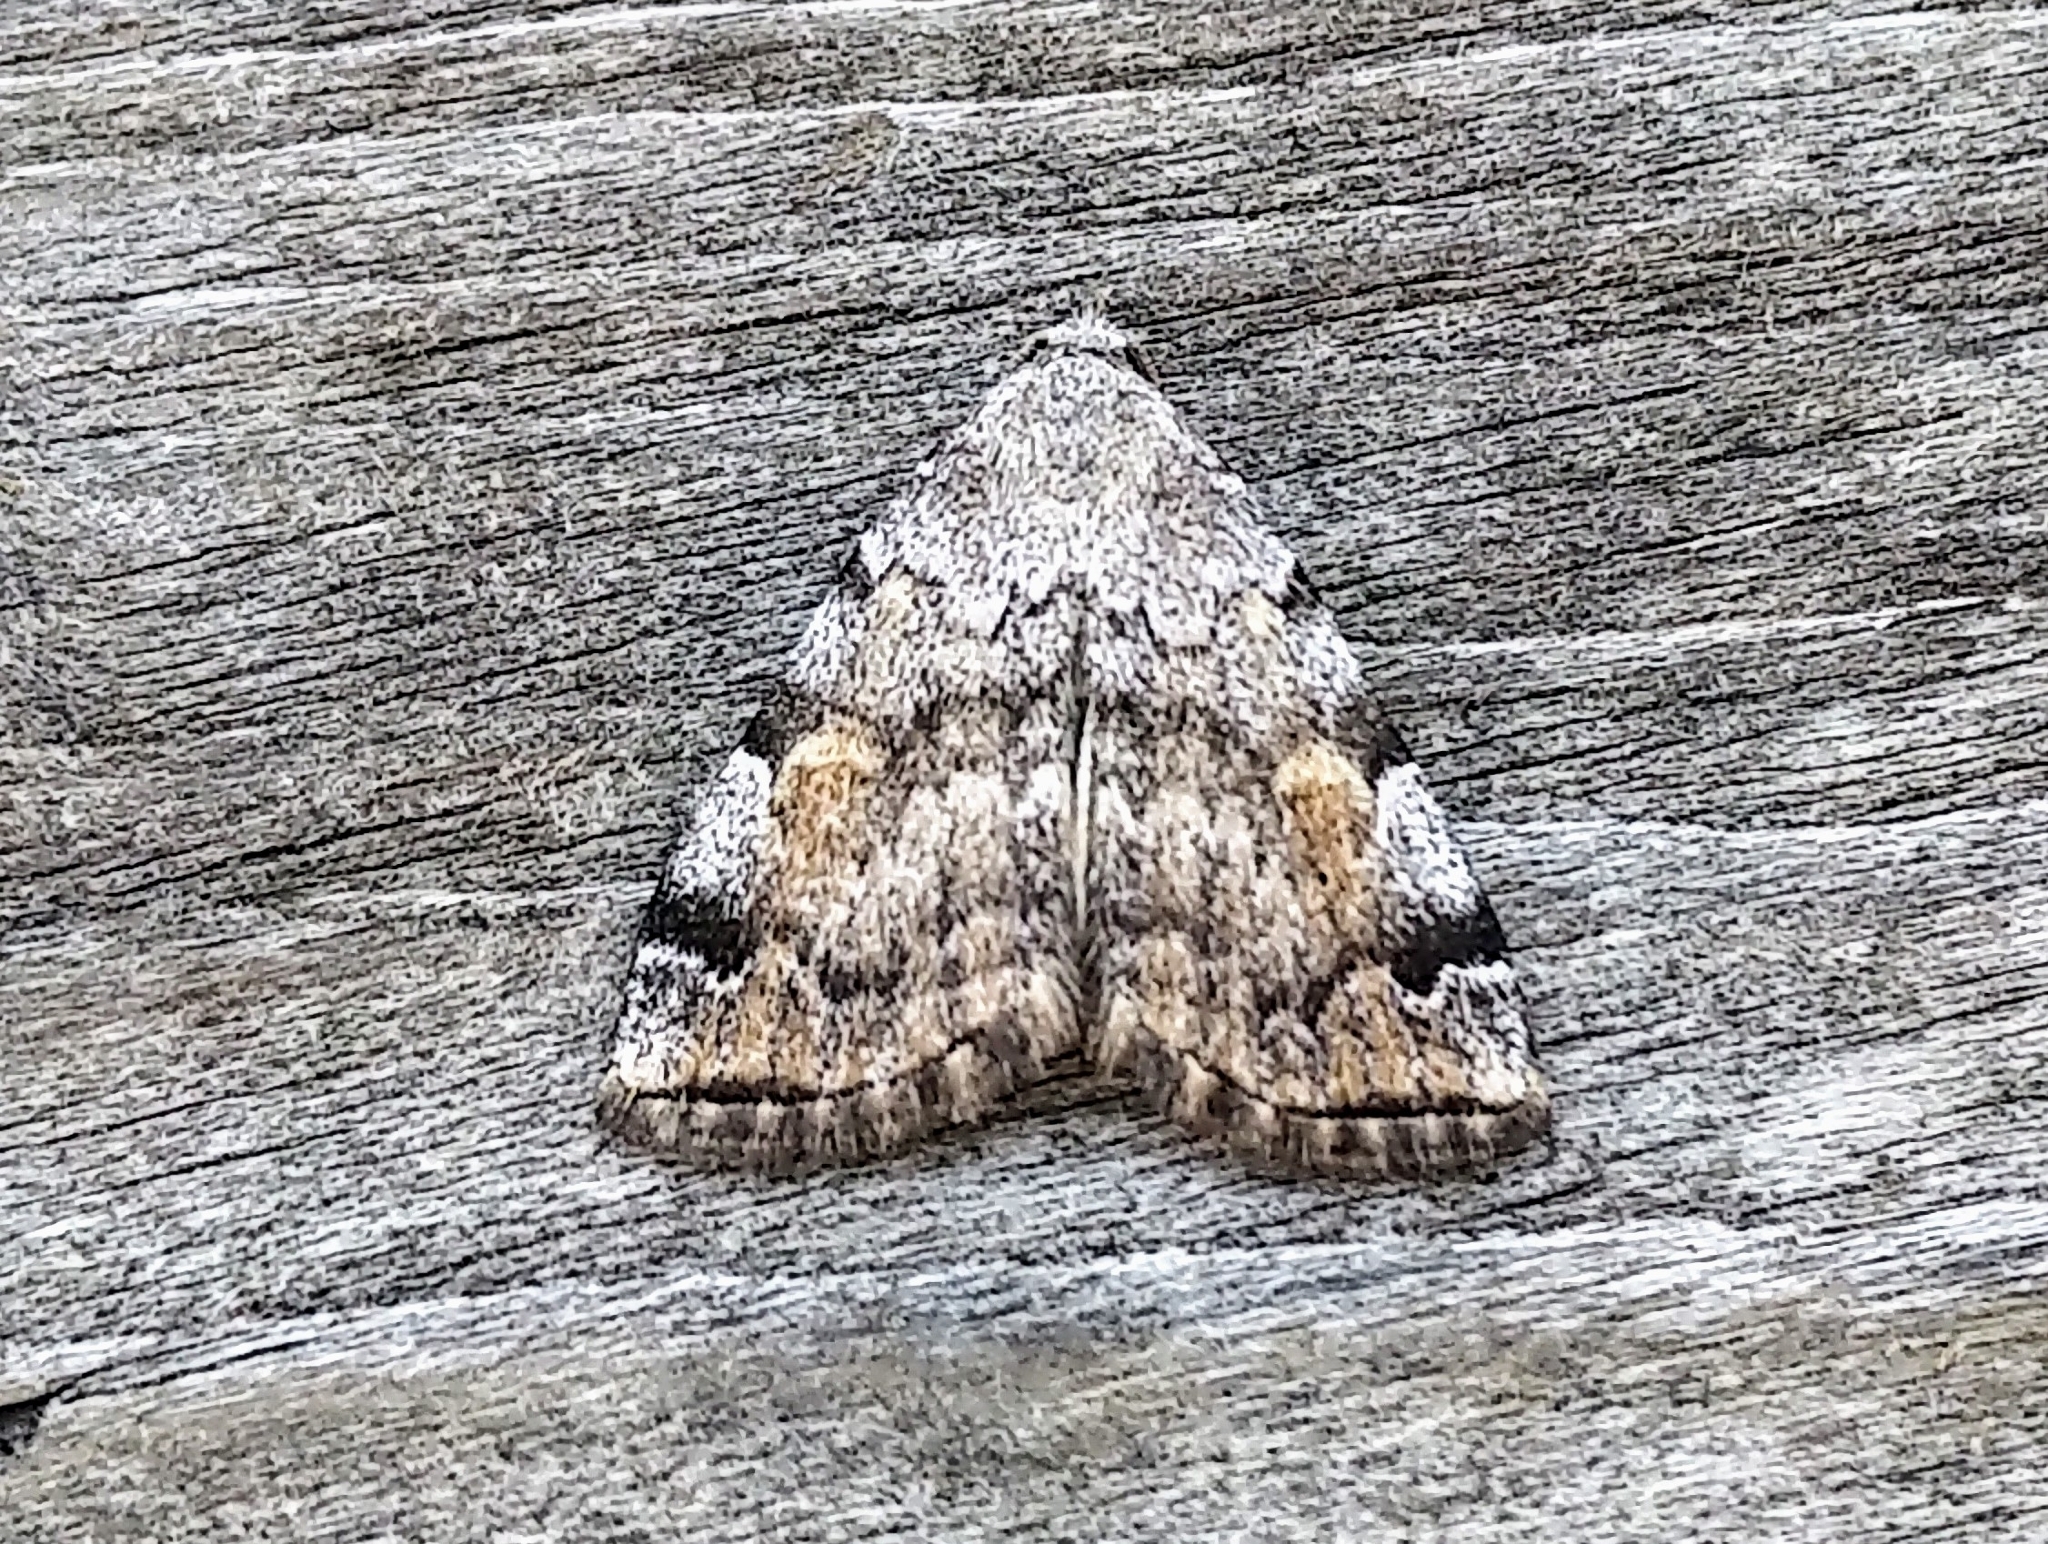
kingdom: Animalia
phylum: Arthropoda
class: Insecta
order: Lepidoptera
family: Erebidae
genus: Idia
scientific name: Idia americalis
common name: American idia moth
